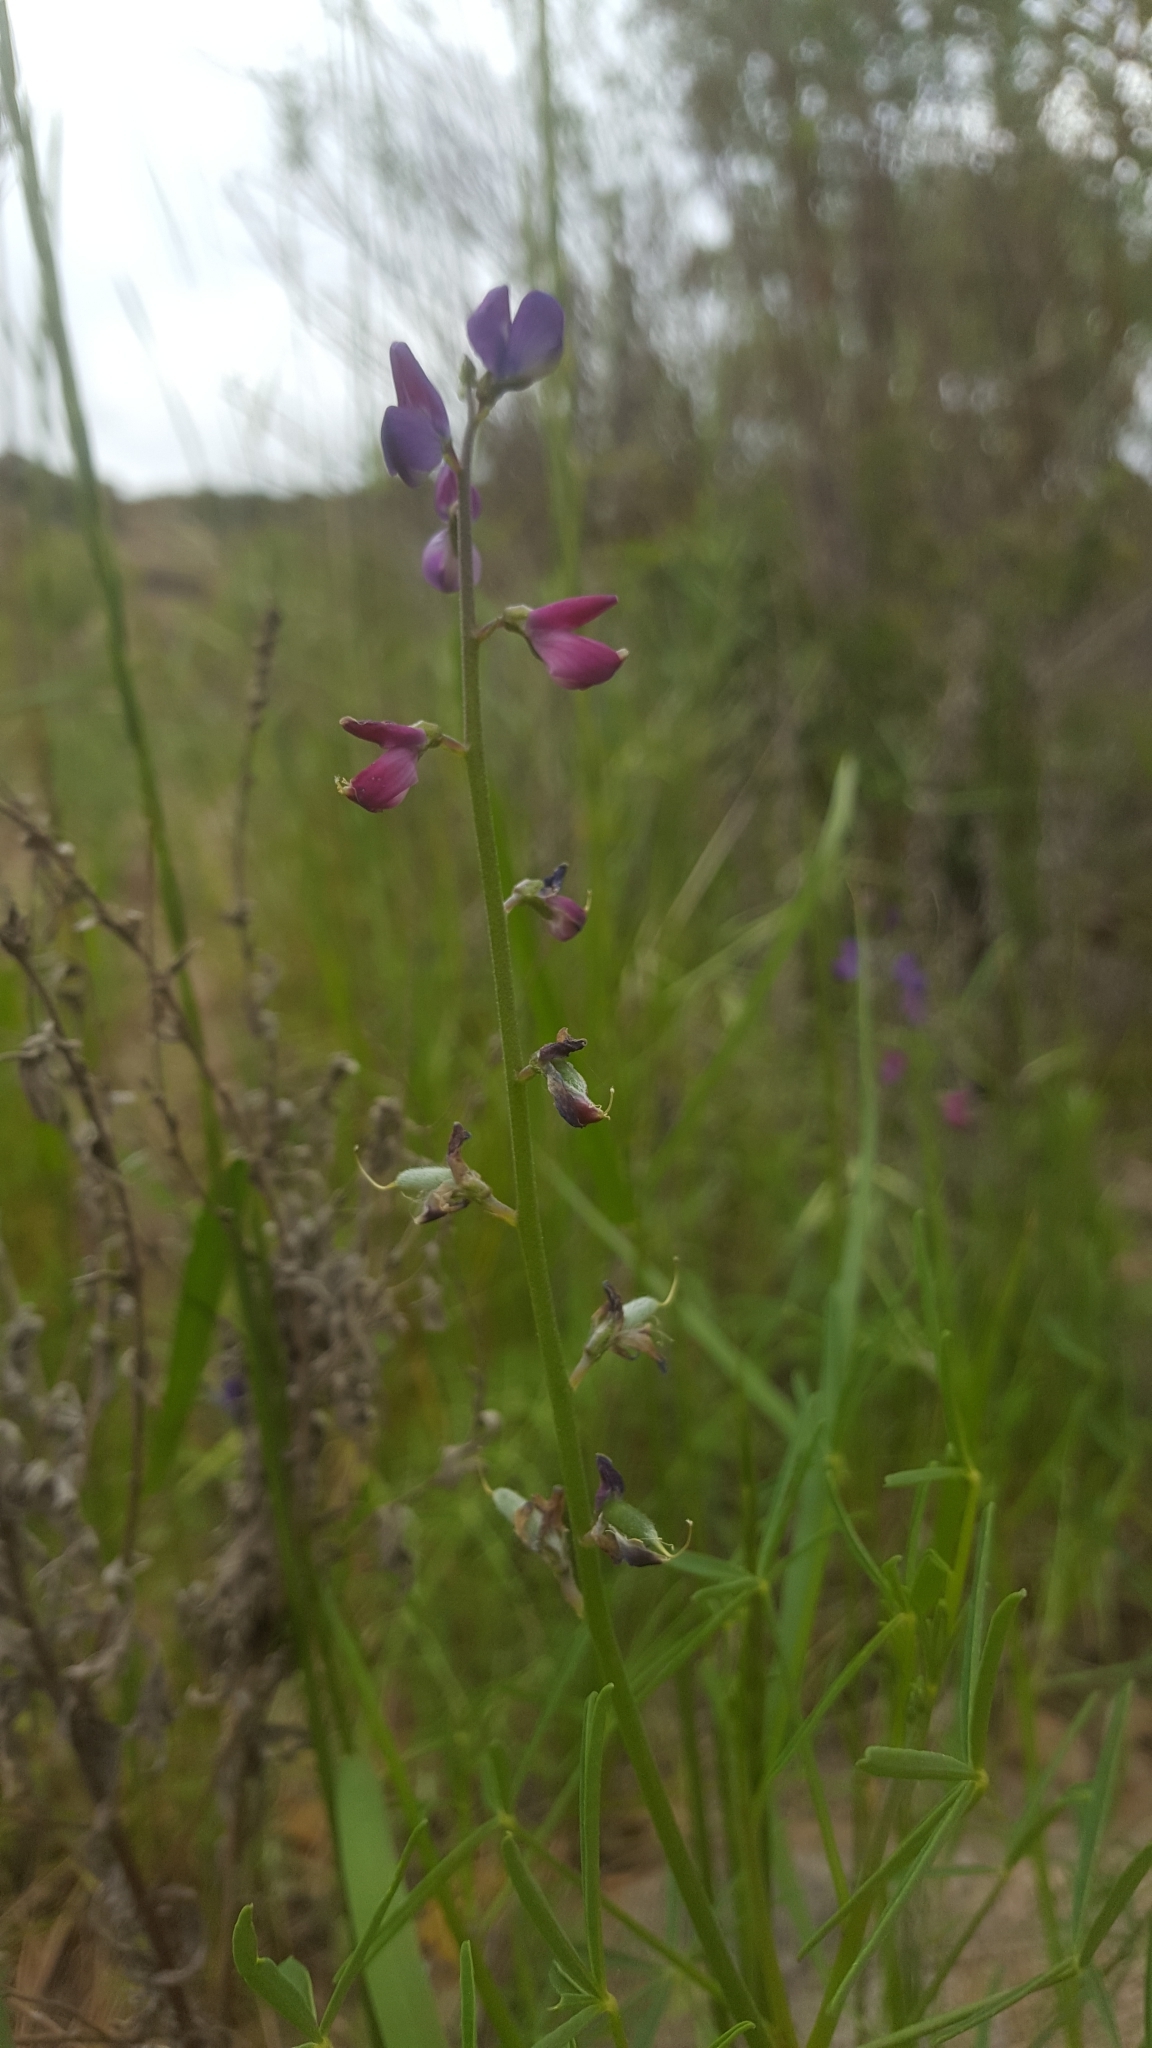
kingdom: Plantae
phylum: Tracheophyta
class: Magnoliopsida
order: Fabales
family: Fabaceae
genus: Lupinus
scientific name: Lupinus truncatus
